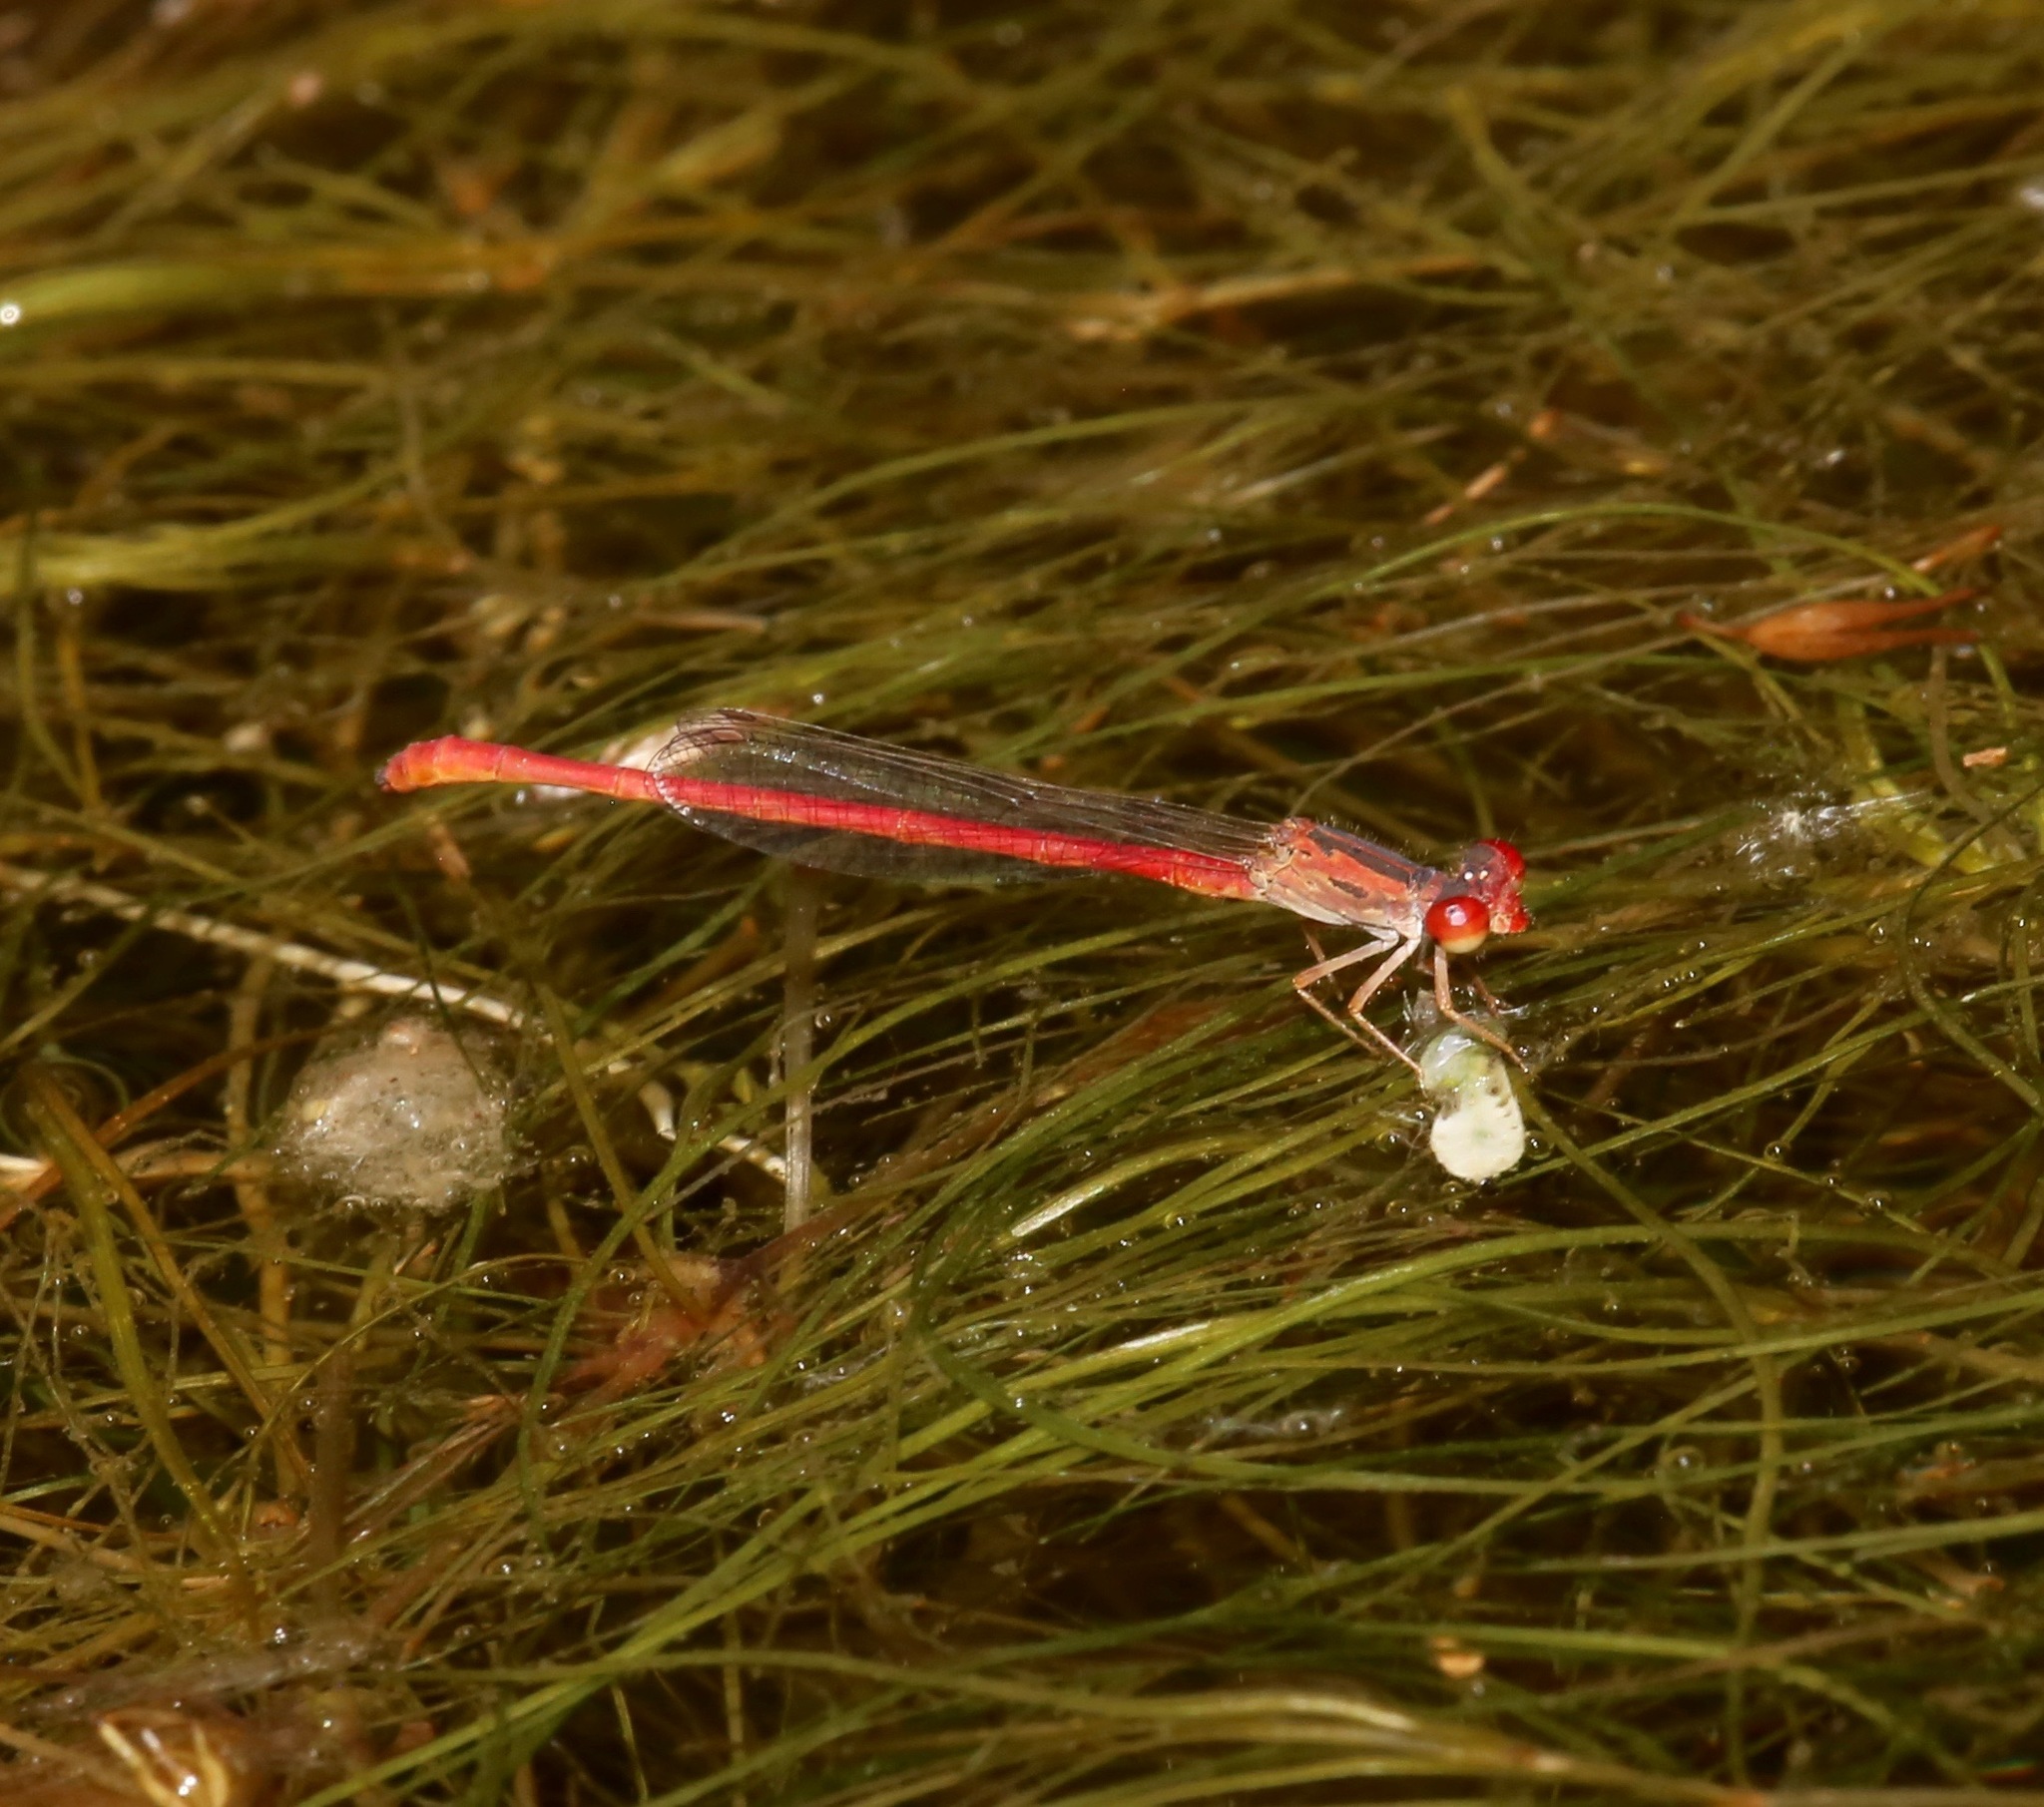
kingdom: Animalia
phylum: Arthropoda
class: Insecta
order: Odonata
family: Coenagrionidae
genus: Telebasis
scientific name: Telebasis salva
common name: Desert firetail
